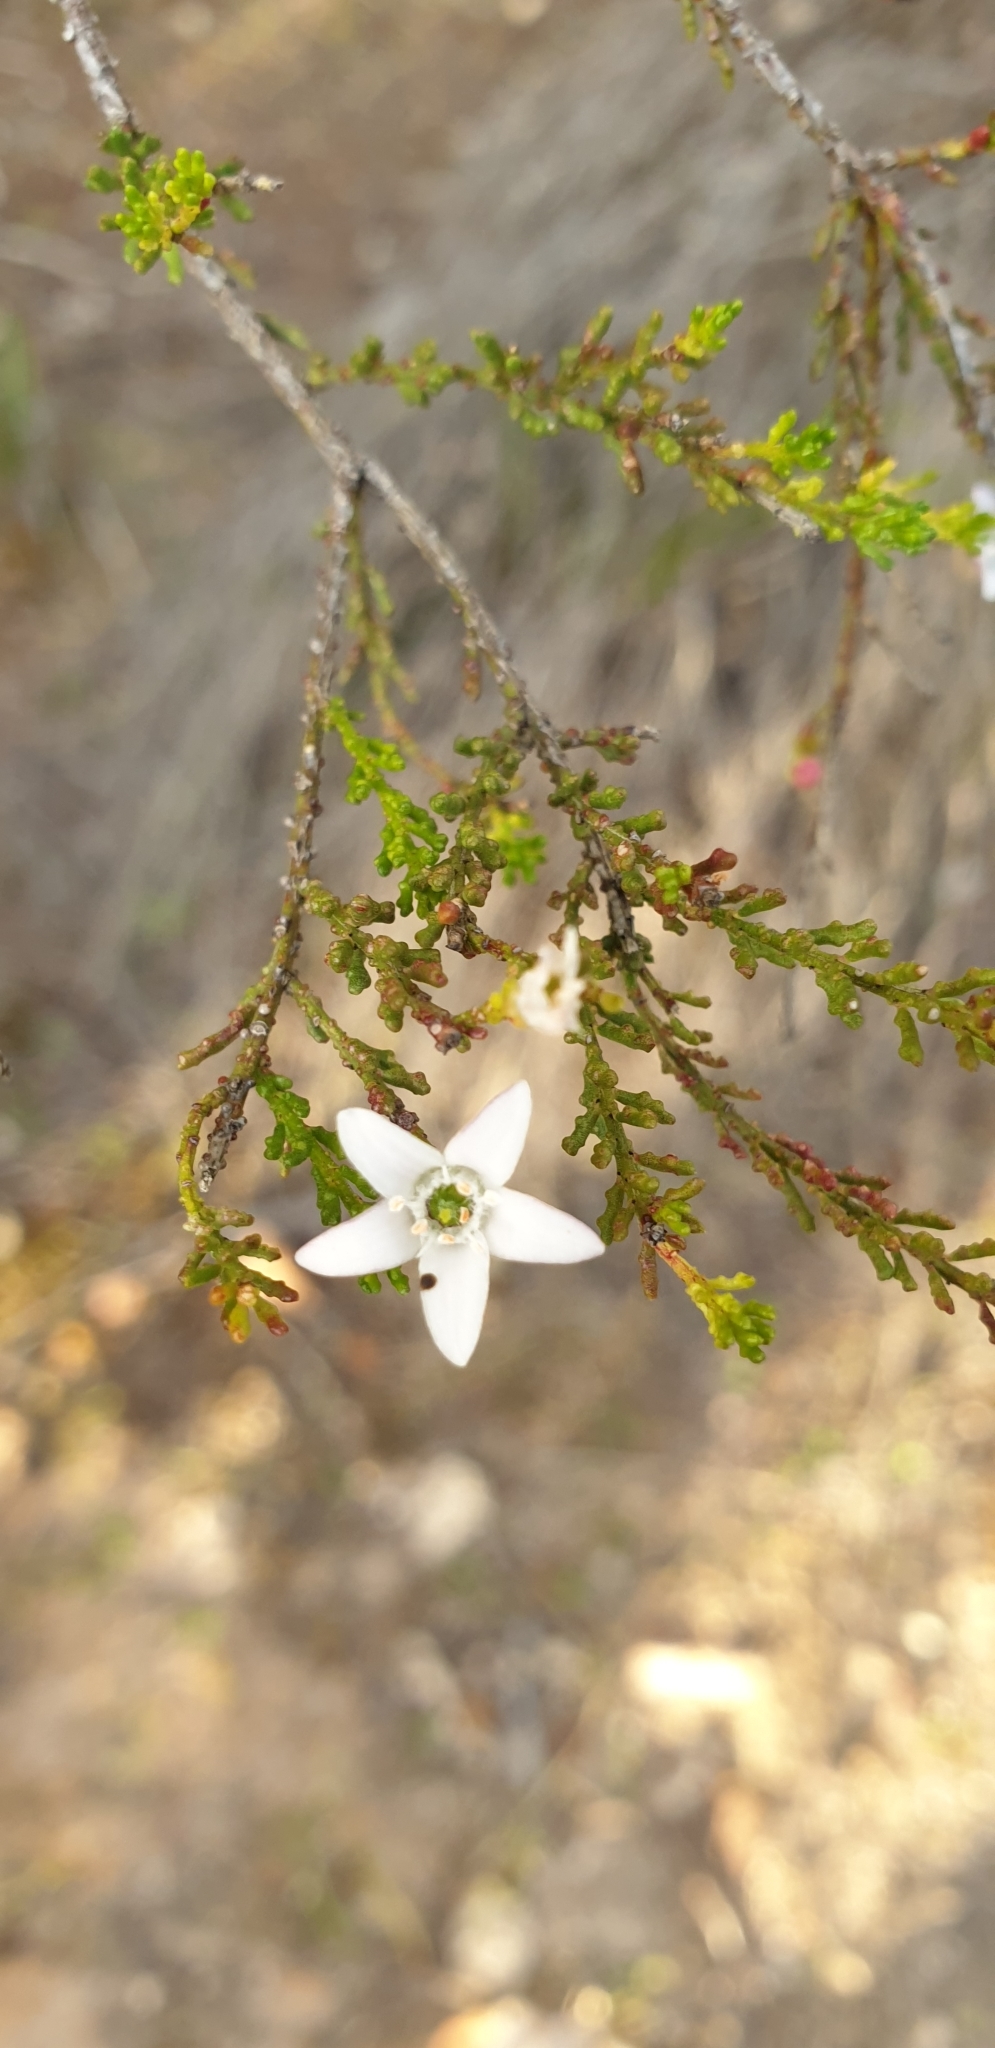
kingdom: Plantae
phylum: Tracheophyta
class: Magnoliopsida
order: Sapindales
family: Rutaceae
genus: Philotheca
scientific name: Philotheca angustifolia
